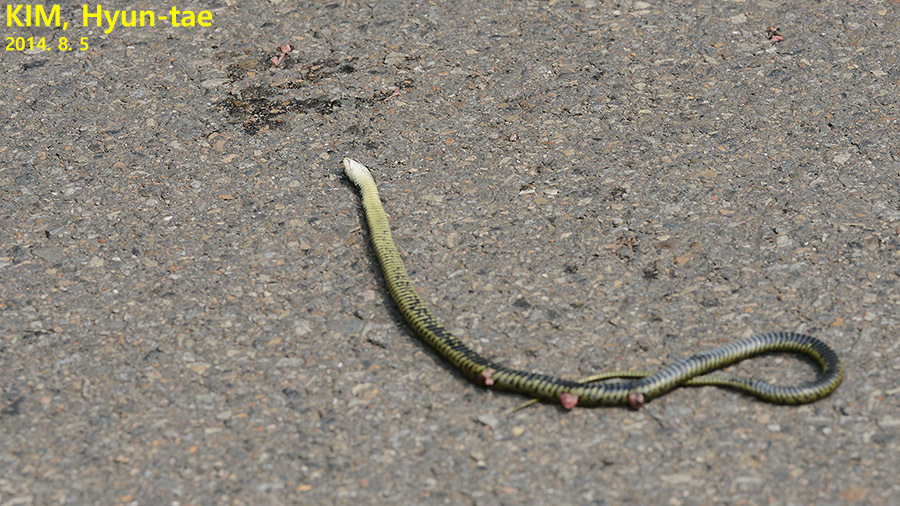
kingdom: Animalia
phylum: Chordata
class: Squamata
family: Colubridae
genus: Rhabdophis
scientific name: Rhabdophis tigrinus
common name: Tiger keelback
